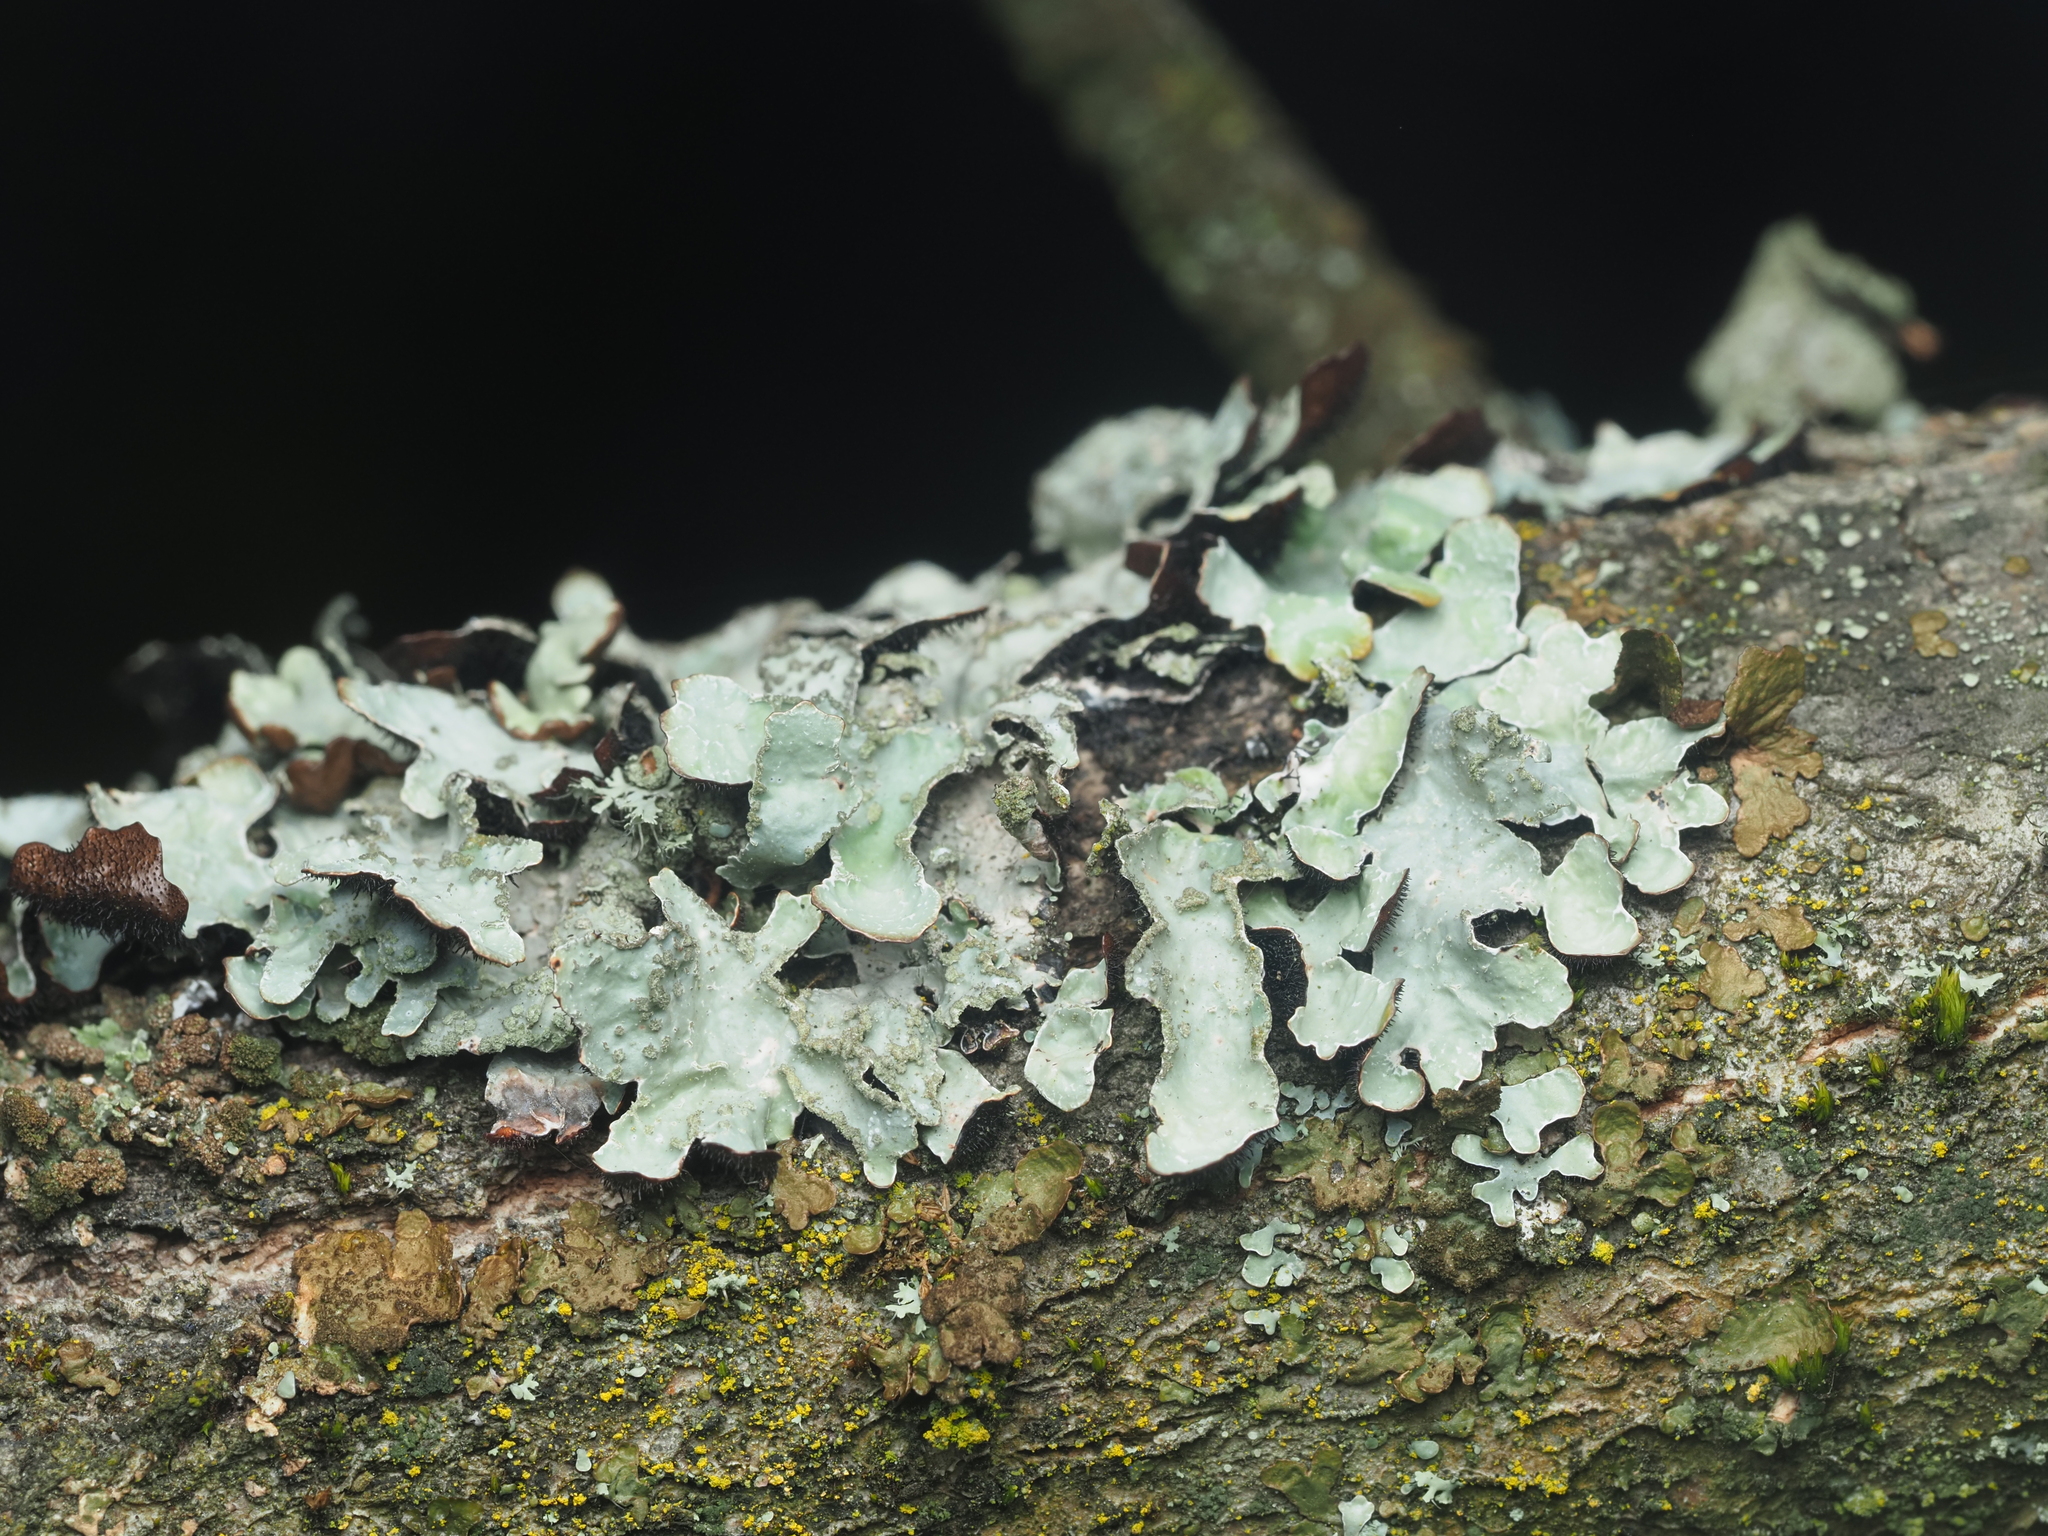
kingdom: Fungi
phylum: Ascomycota
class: Lecanoromycetes
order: Lecanorales
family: Parmeliaceae
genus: Parmelia
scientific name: Parmelia sulcata
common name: Netted shield lichen
